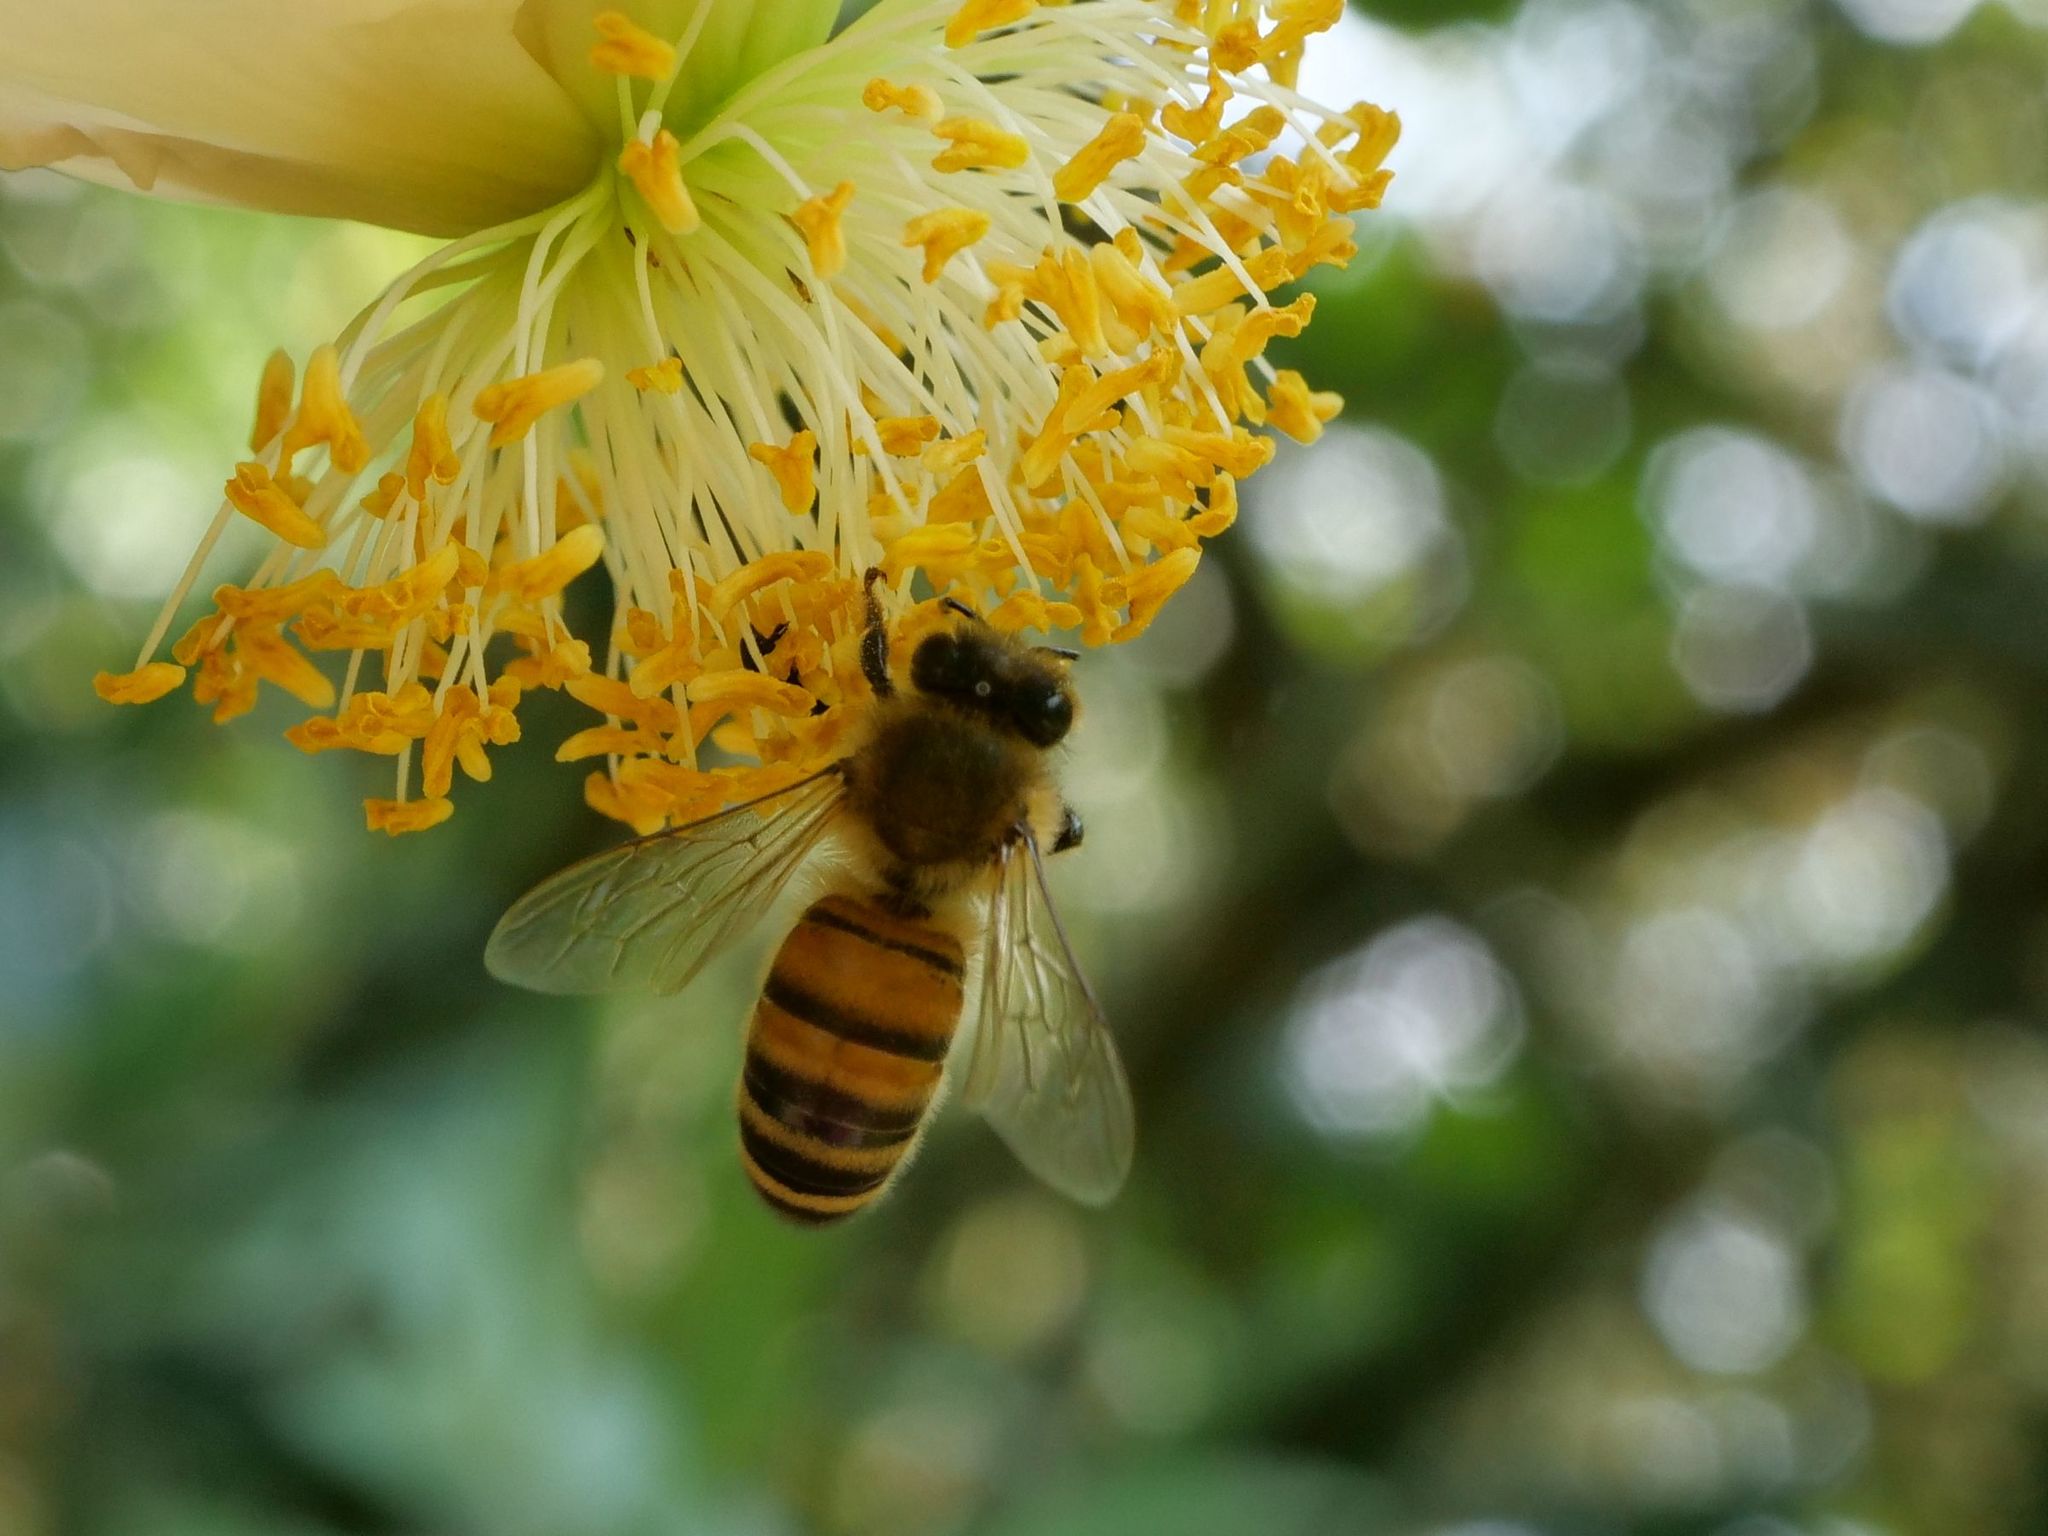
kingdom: Animalia
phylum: Arthropoda
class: Insecta
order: Hymenoptera
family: Apidae
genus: Apis
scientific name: Apis mellifera
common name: Honey bee
